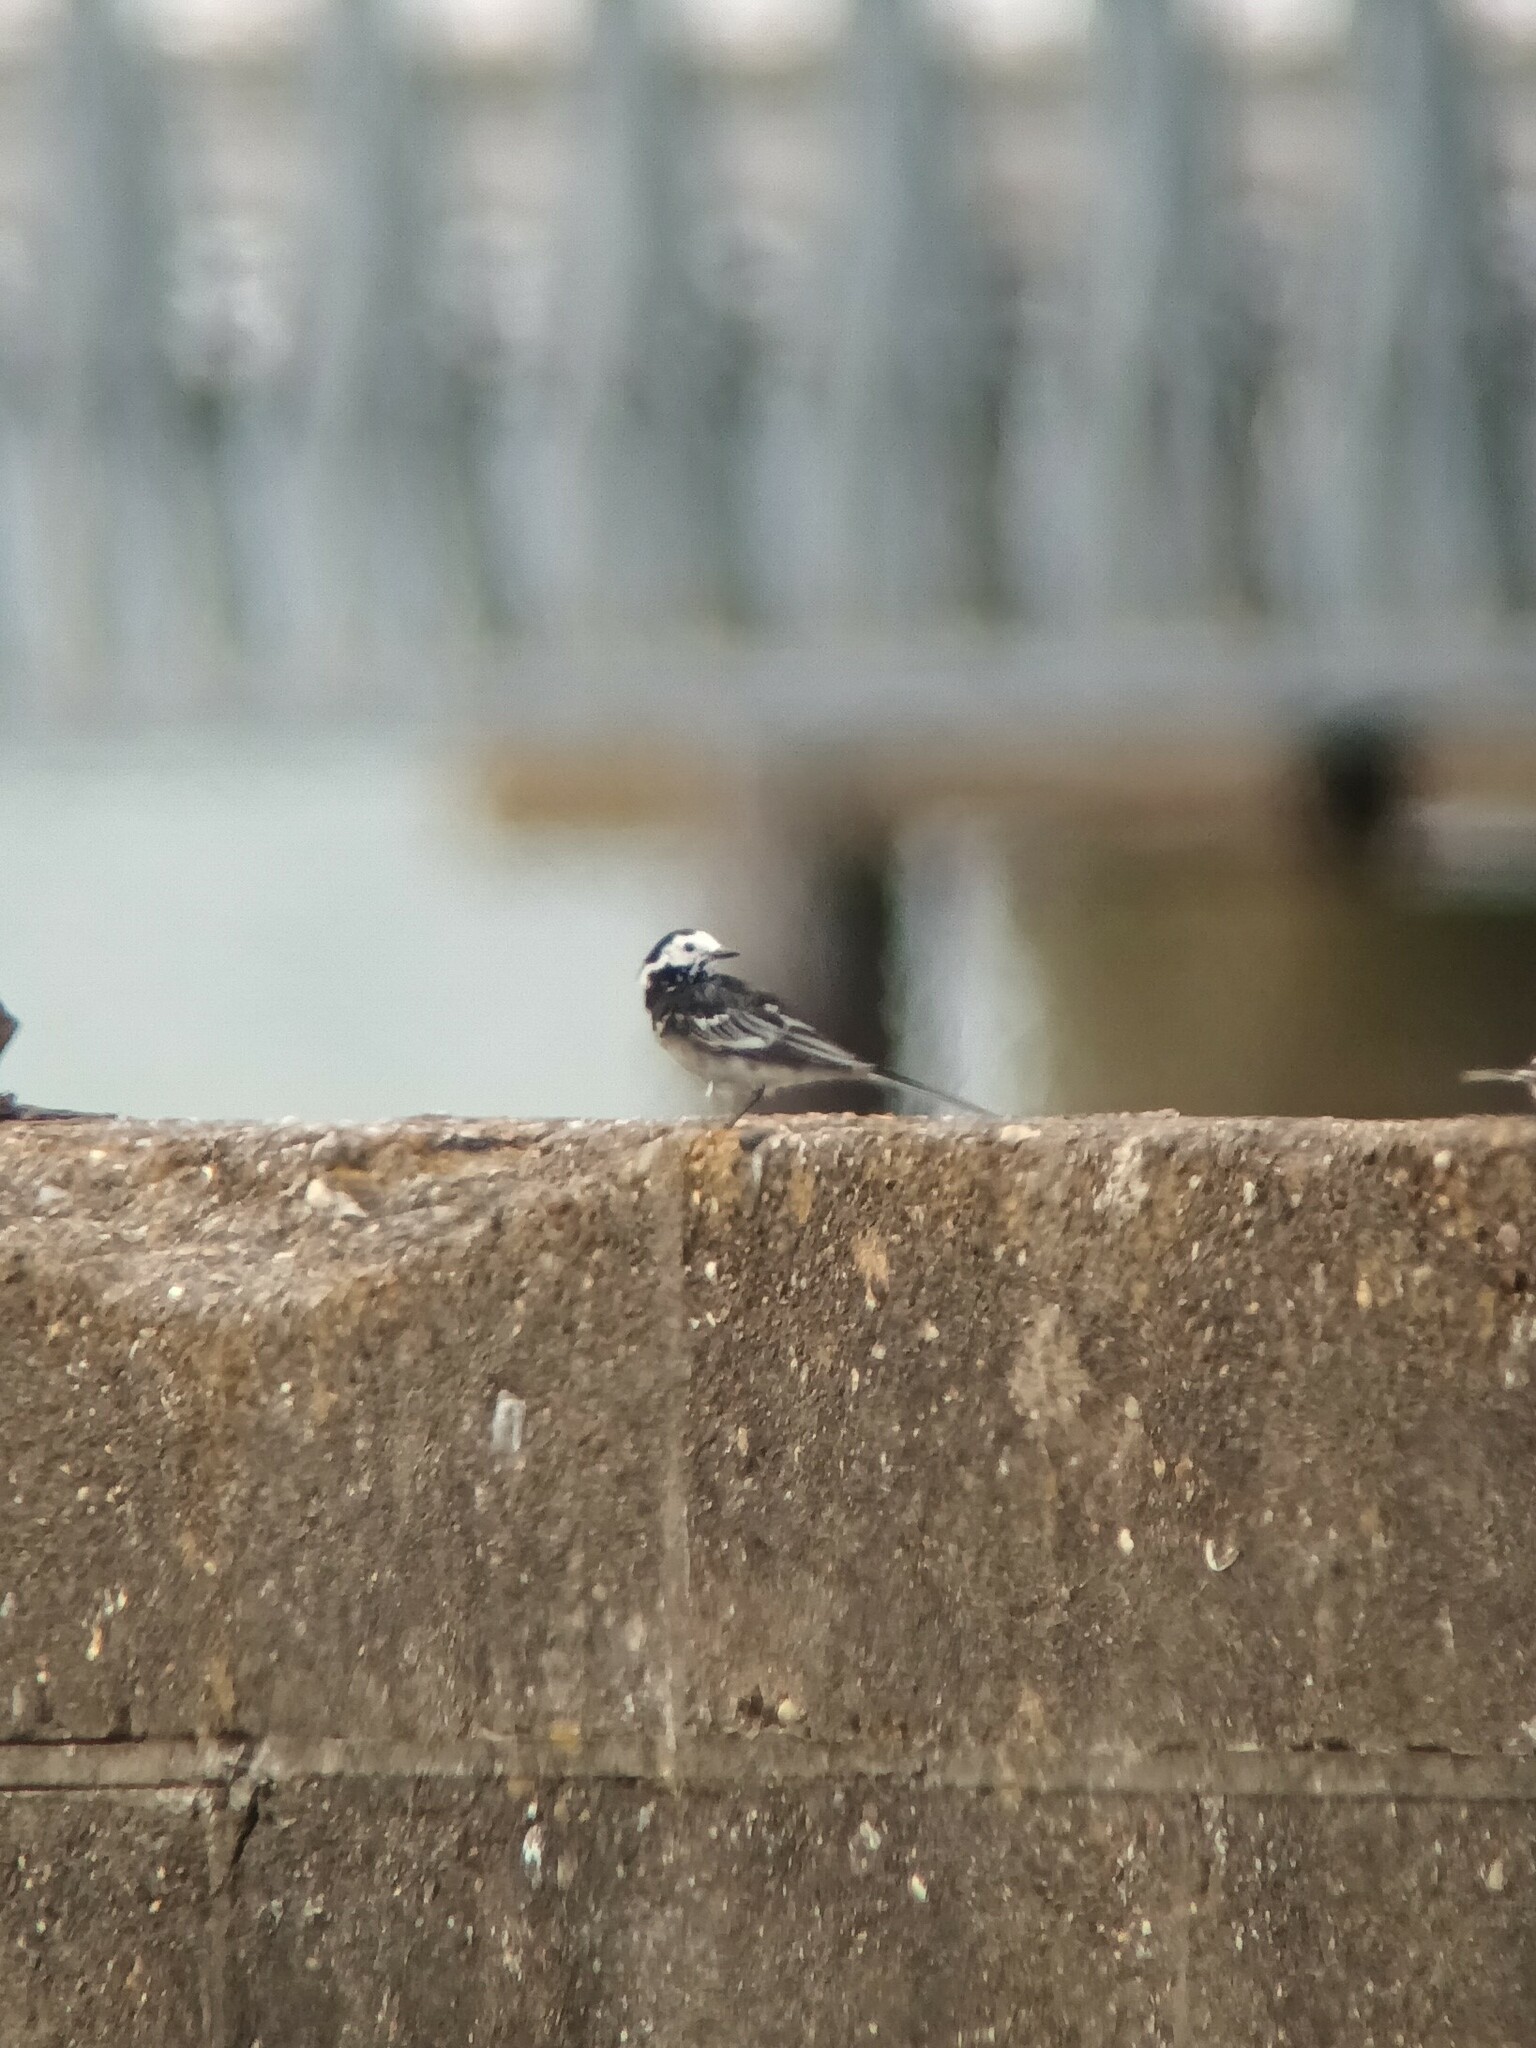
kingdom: Animalia
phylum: Chordata
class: Aves
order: Passeriformes
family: Motacillidae
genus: Motacilla
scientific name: Motacilla alba
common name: White wagtail
